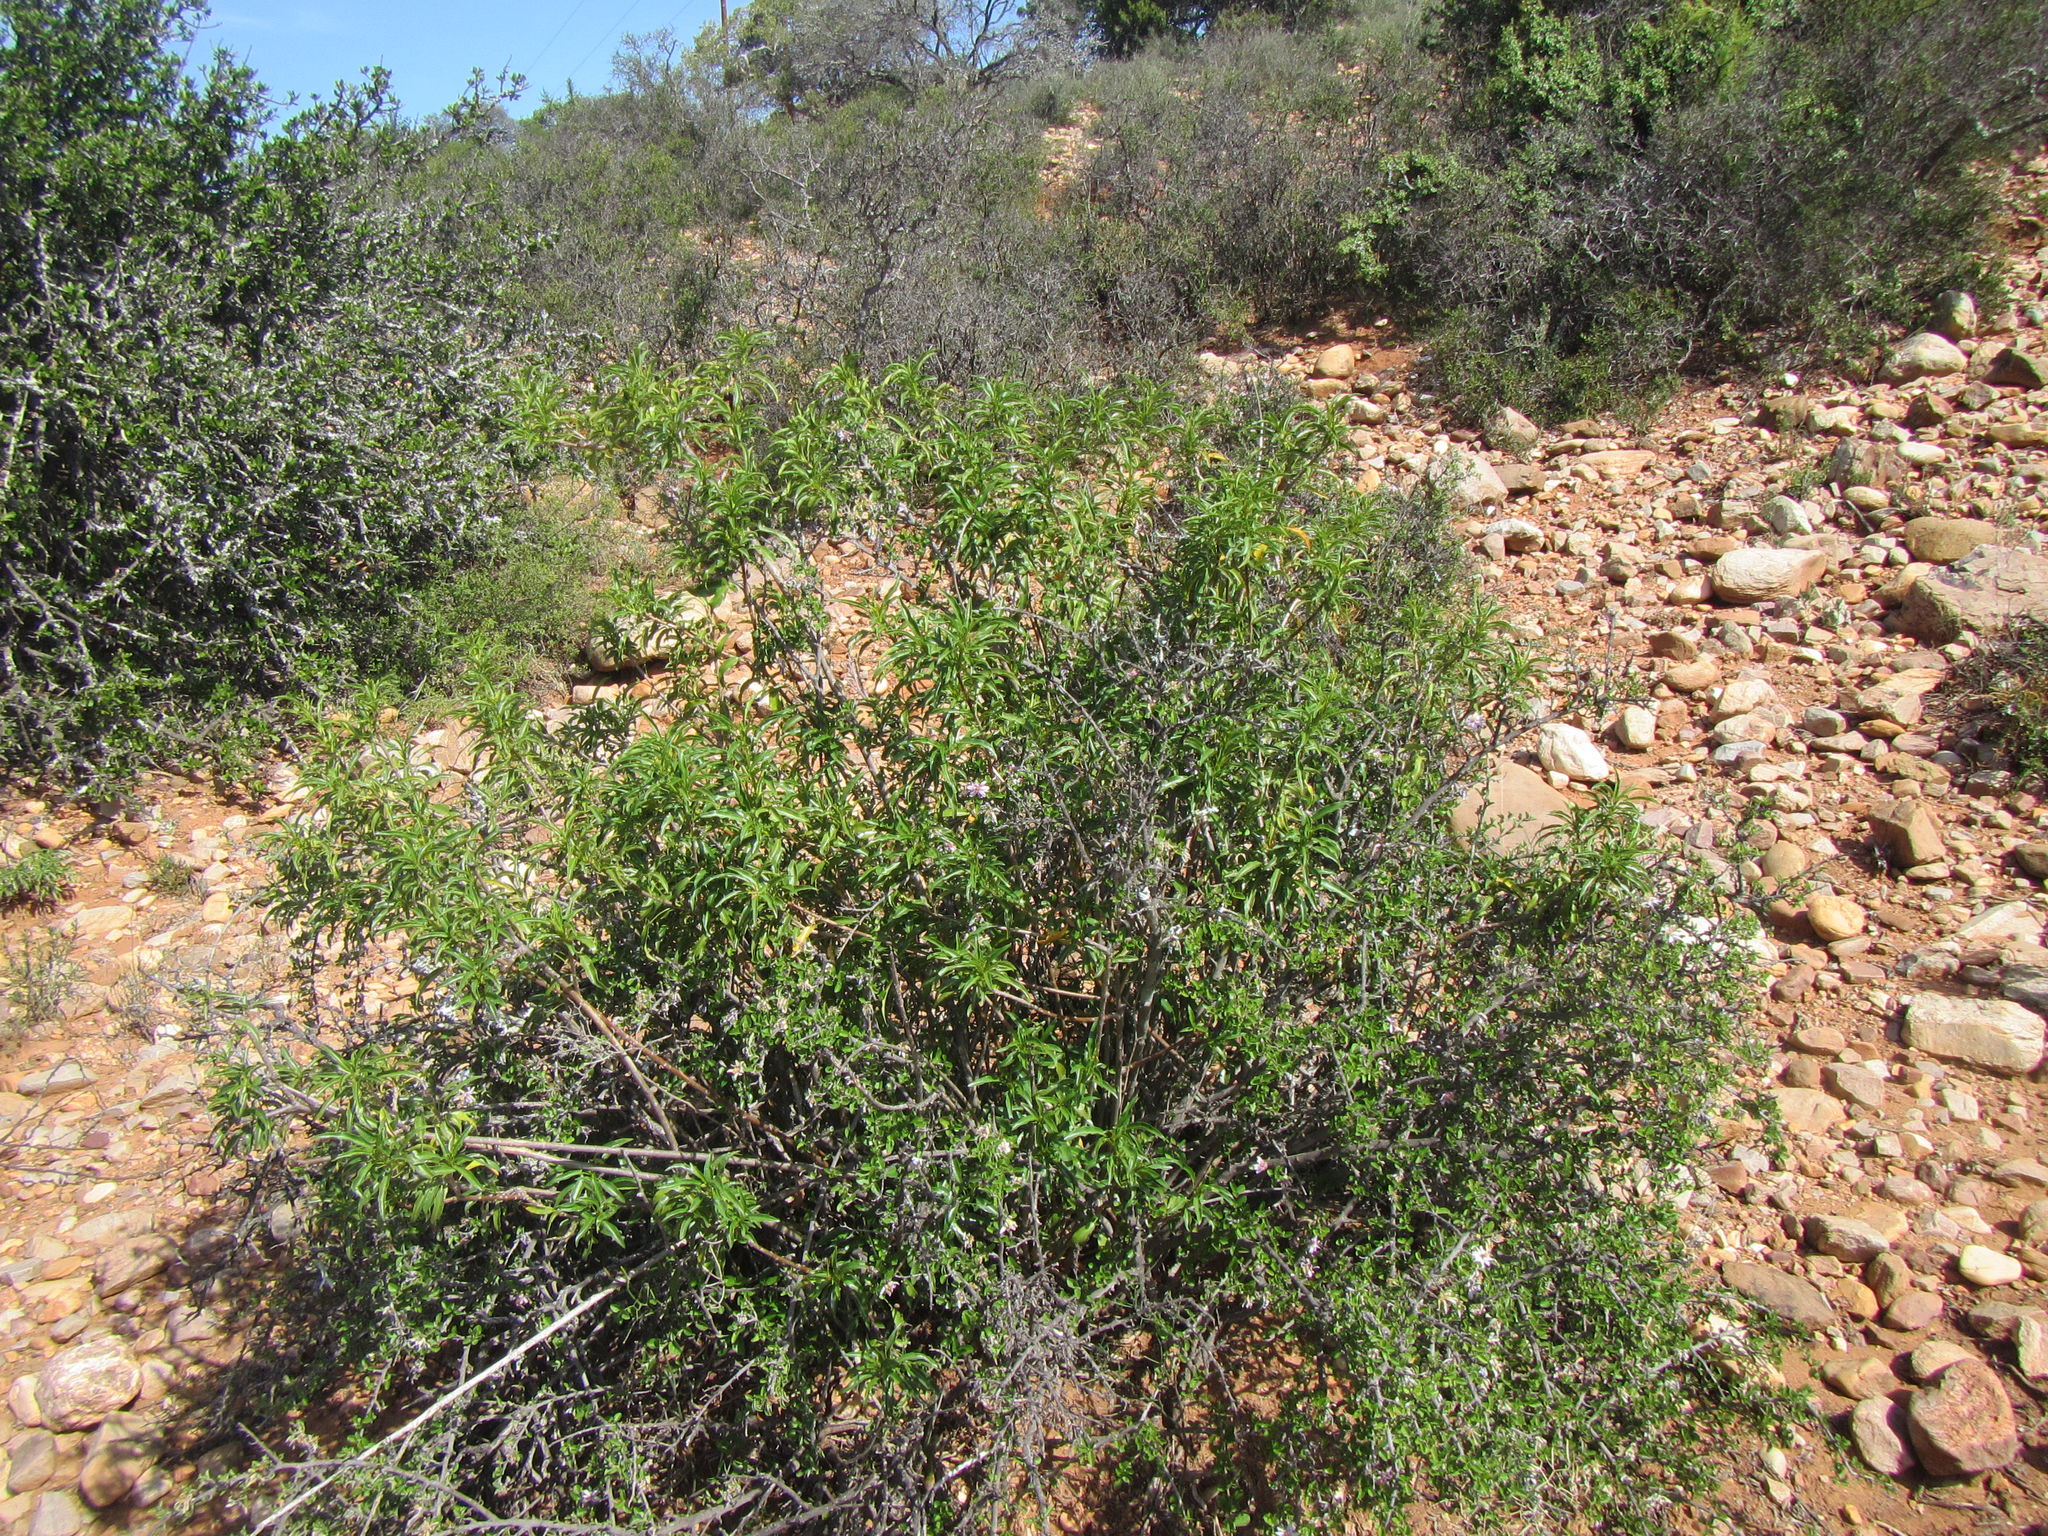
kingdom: Plantae
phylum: Tracheophyta
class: Magnoliopsida
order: Malpighiales
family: Euphorbiaceae
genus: Jatropha
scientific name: Jatropha capensis
